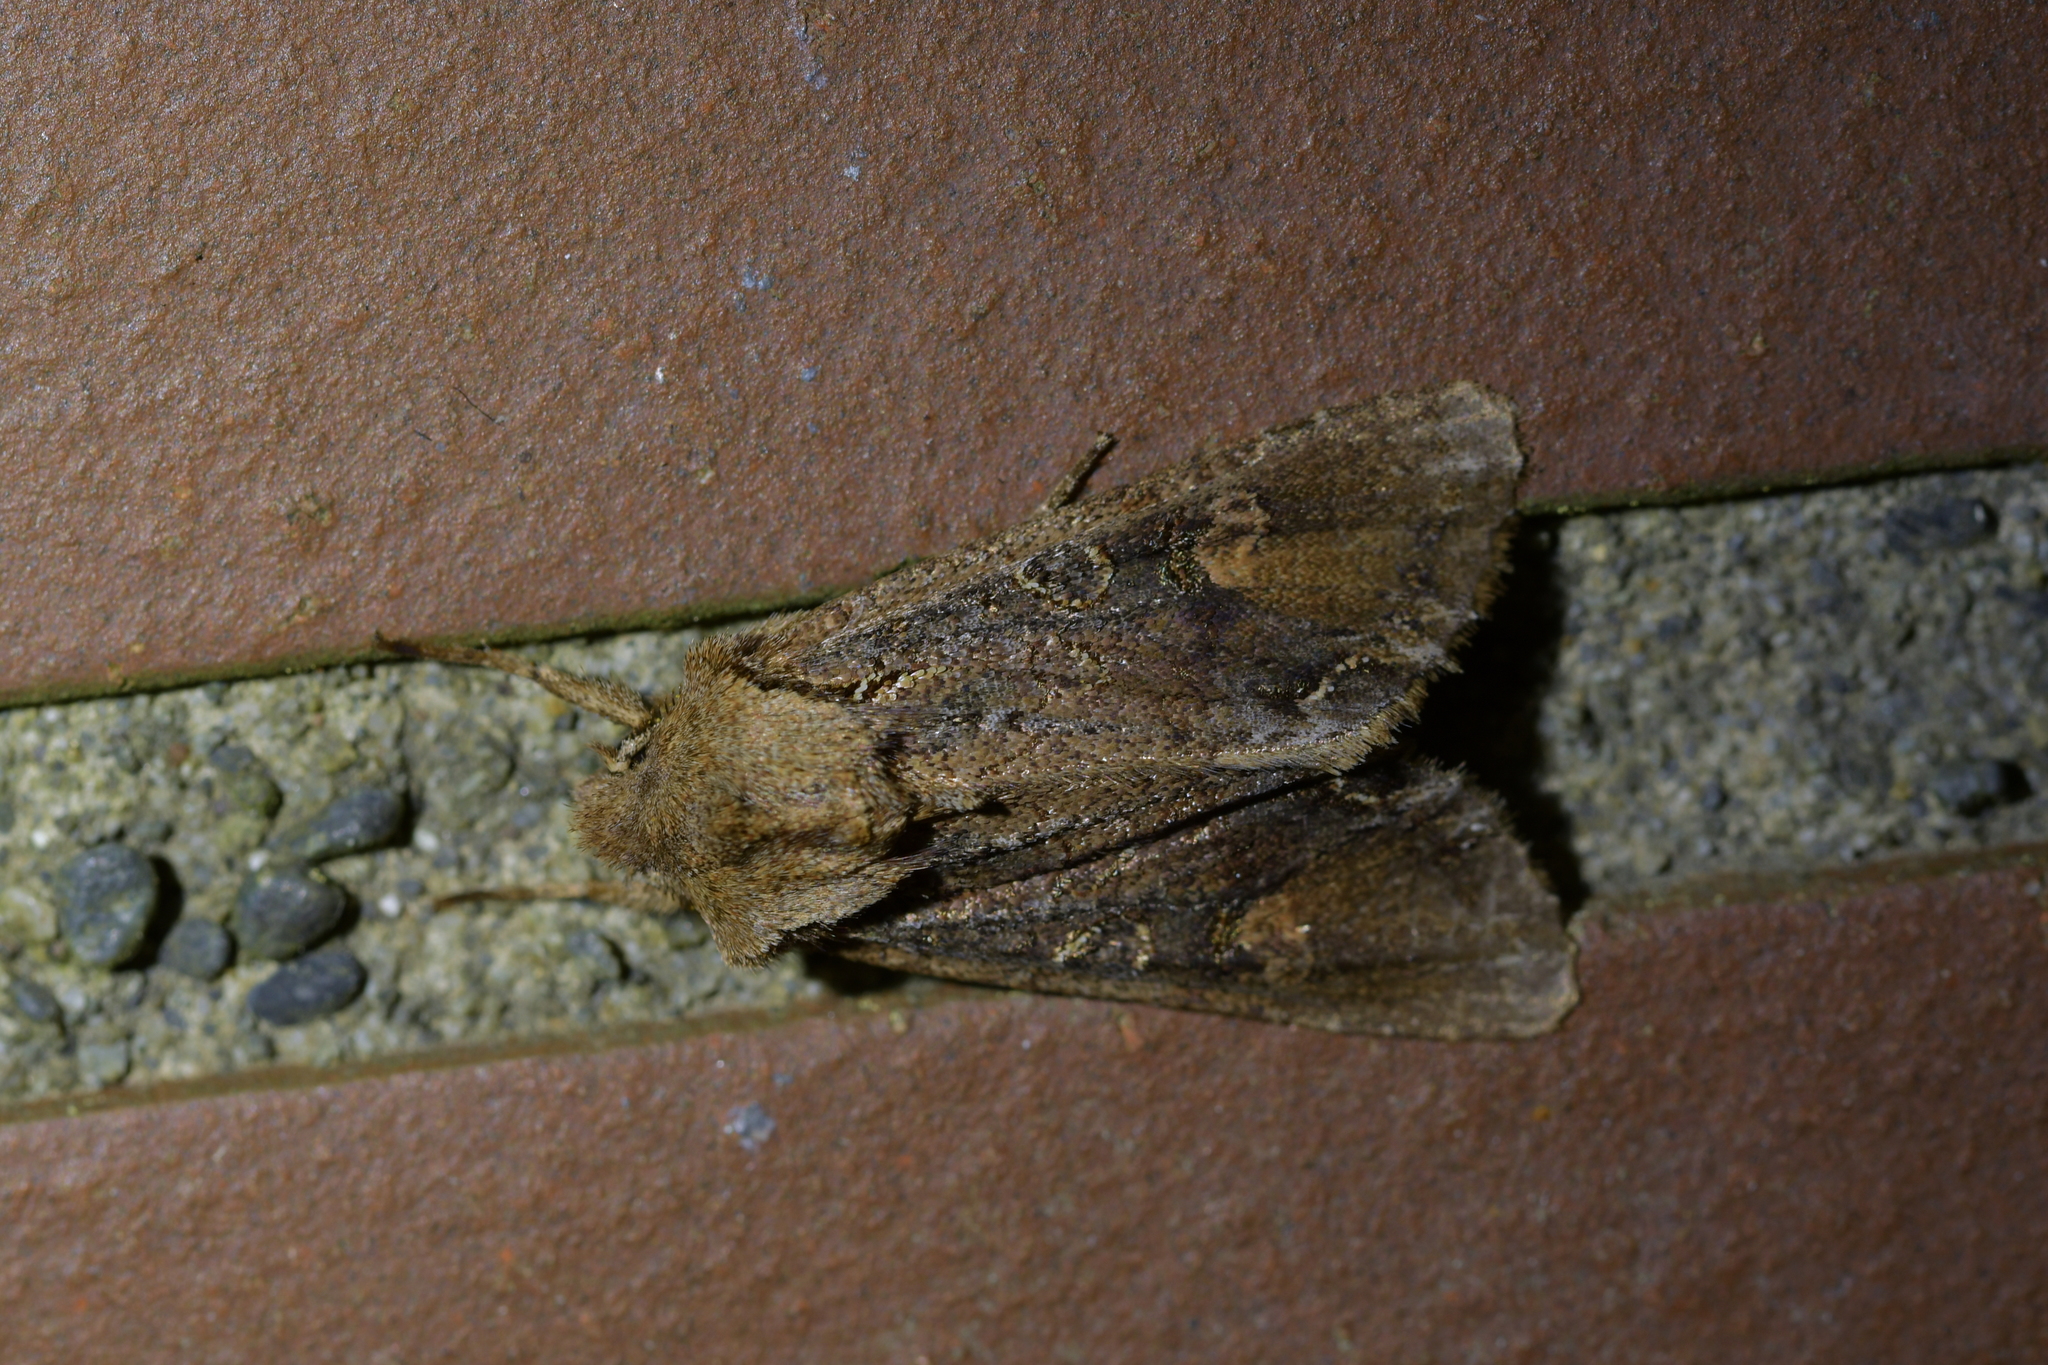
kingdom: Animalia
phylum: Arthropoda
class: Insecta
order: Lepidoptera
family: Noctuidae
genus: Ichneutica
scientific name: Ichneutica
